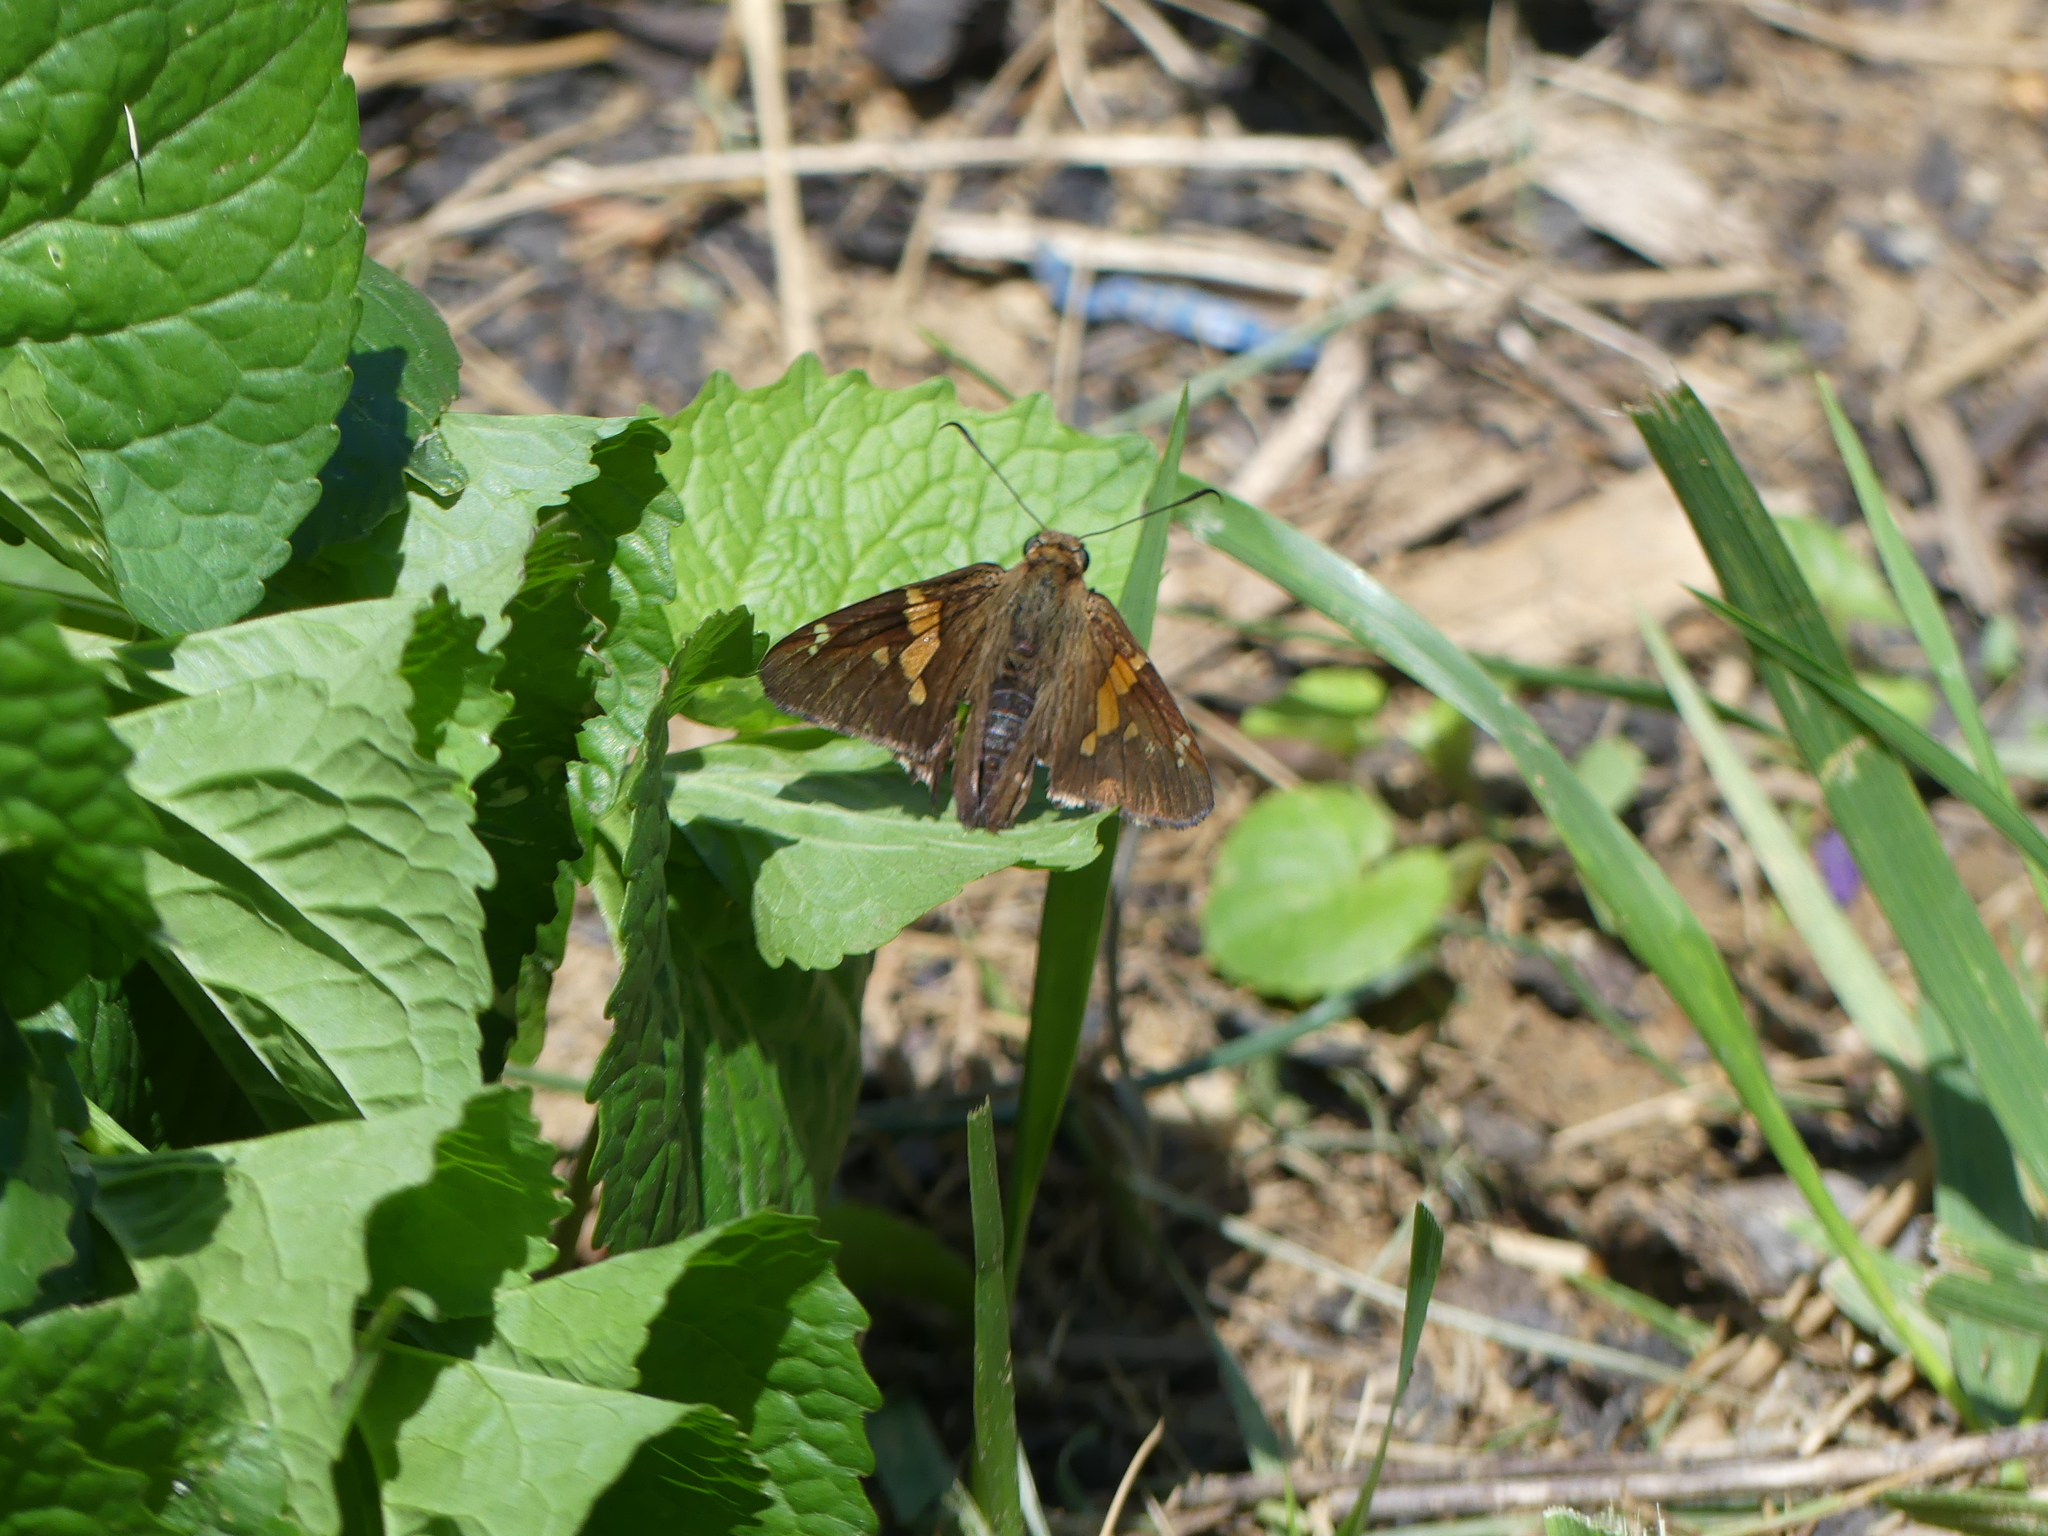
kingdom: Animalia
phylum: Arthropoda
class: Insecta
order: Lepidoptera
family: Hesperiidae
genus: Epargyreus
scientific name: Epargyreus clarus
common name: Silver-spotted skipper
